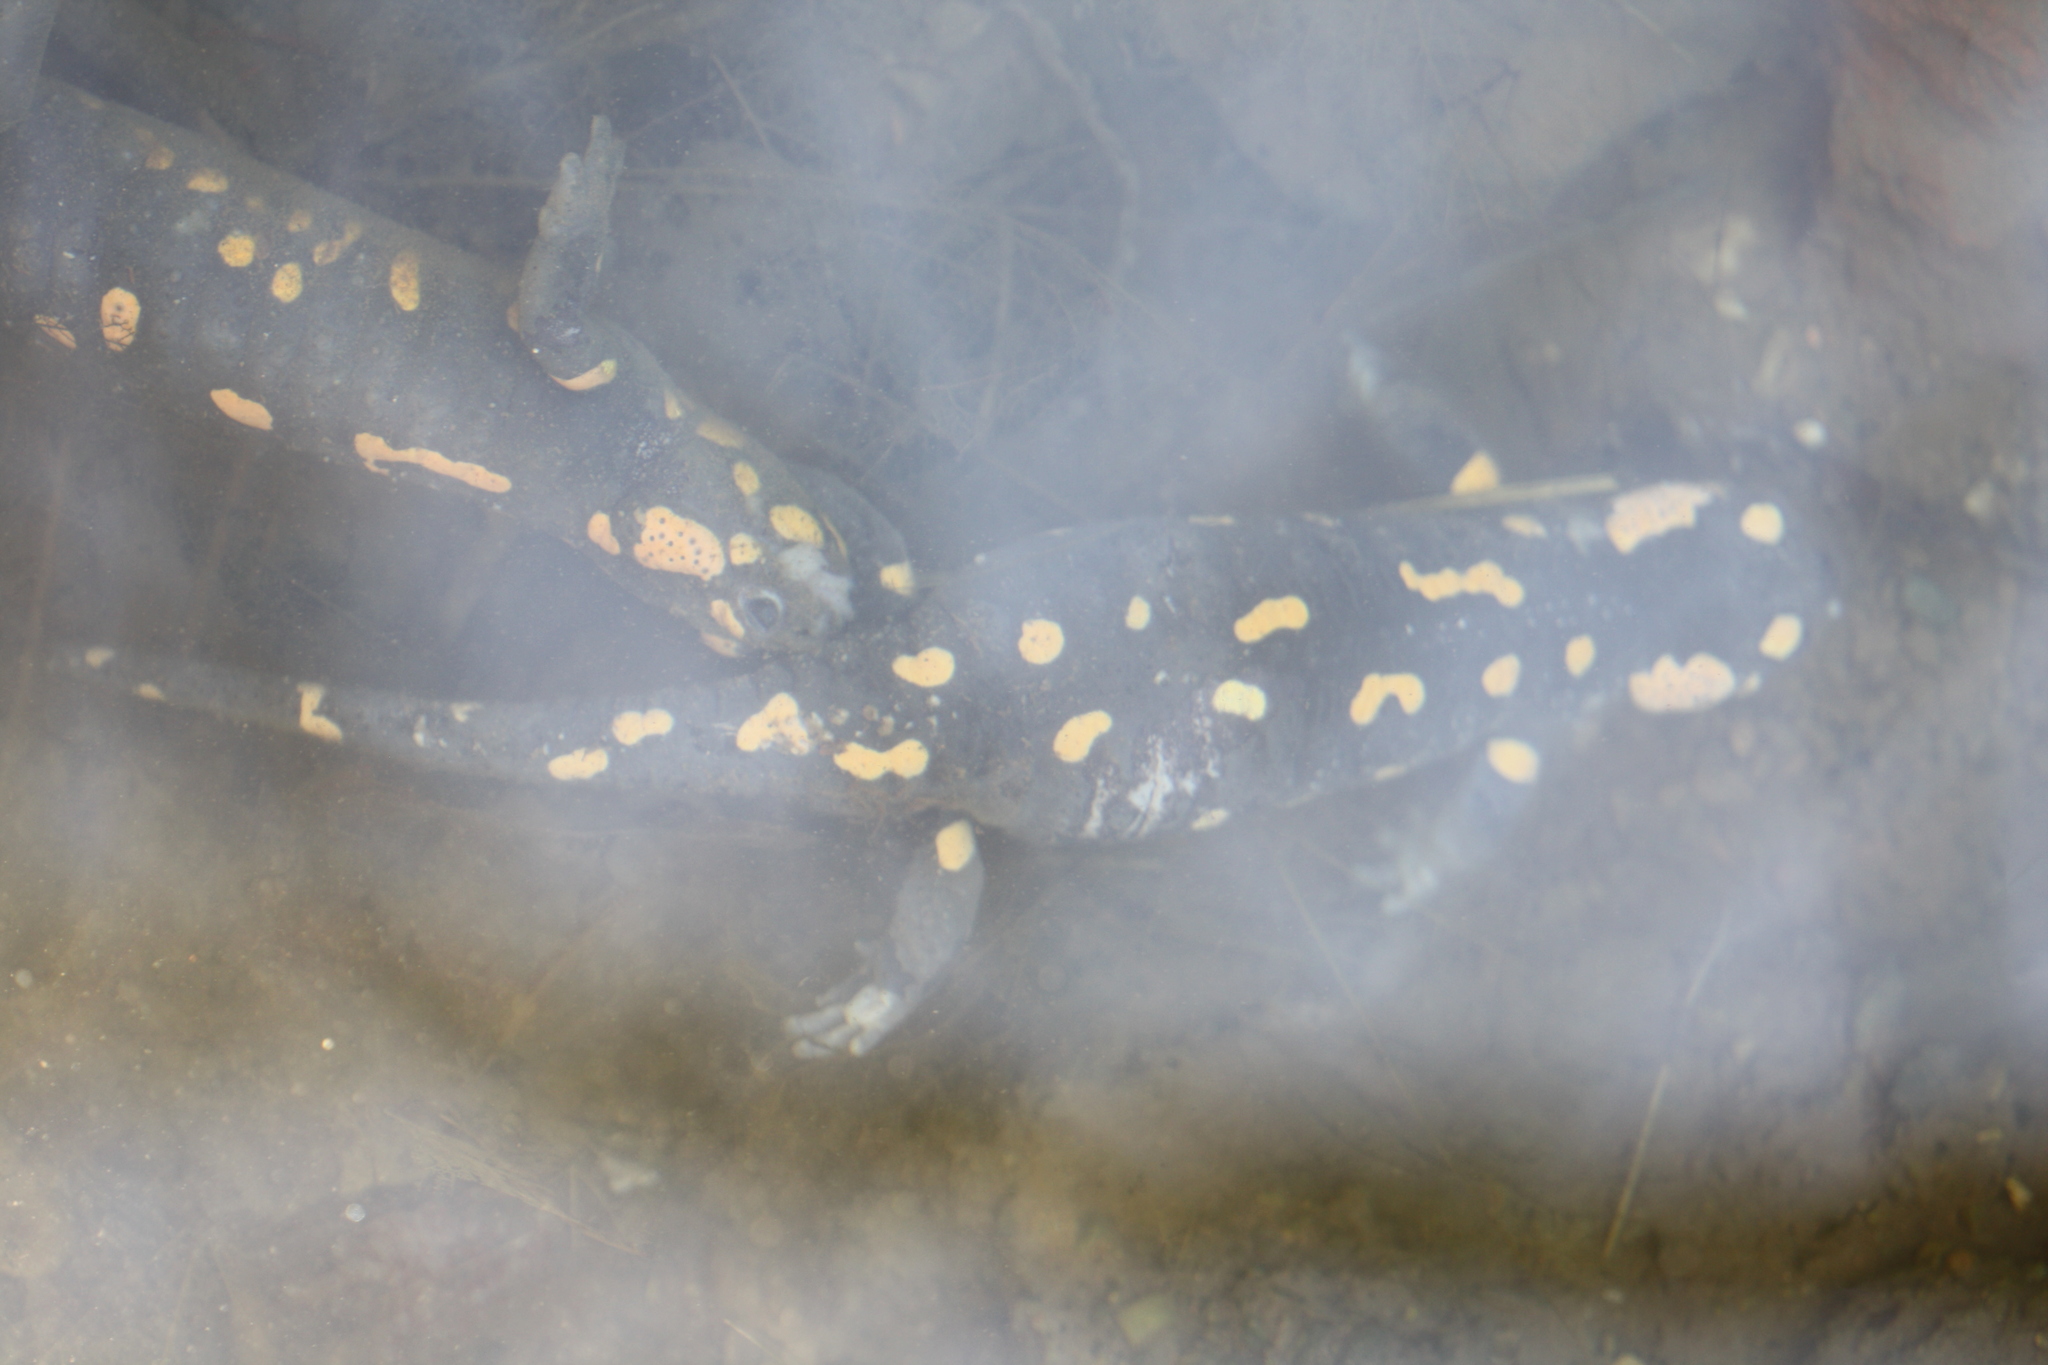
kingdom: Animalia
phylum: Chordata
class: Amphibia
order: Caudata
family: Salamandridae
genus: Salamandra
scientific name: Salamandra salamandra
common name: Fire salamander
